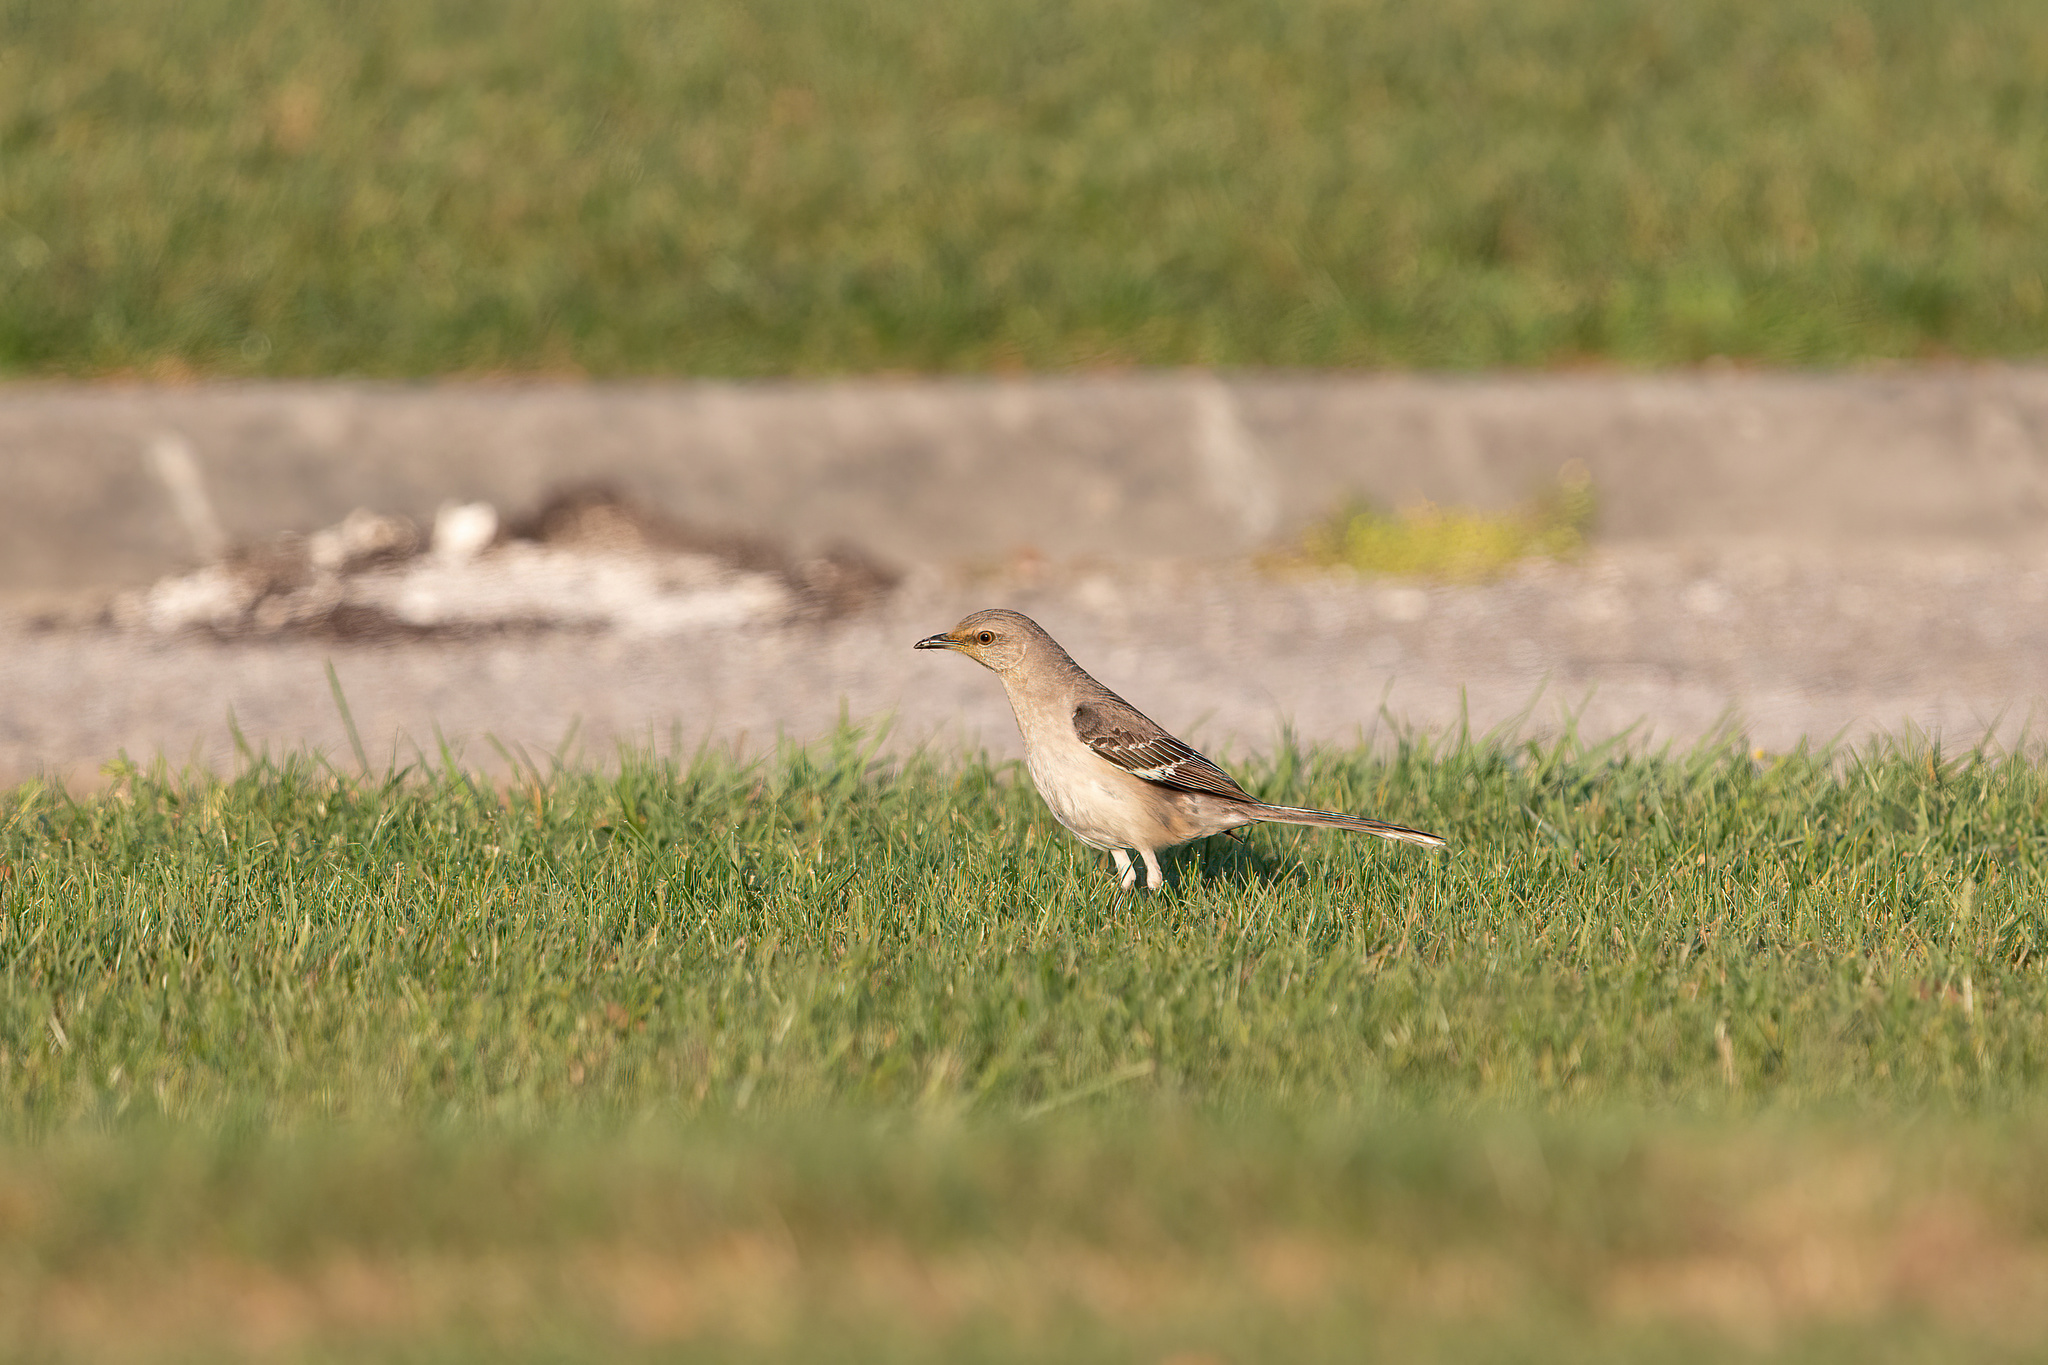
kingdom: Animalia
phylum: Chordata
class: Aves
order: Passeriformes
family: Mimidae
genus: Mimus
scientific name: Mimus polyglottos
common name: Northern mockingbird
